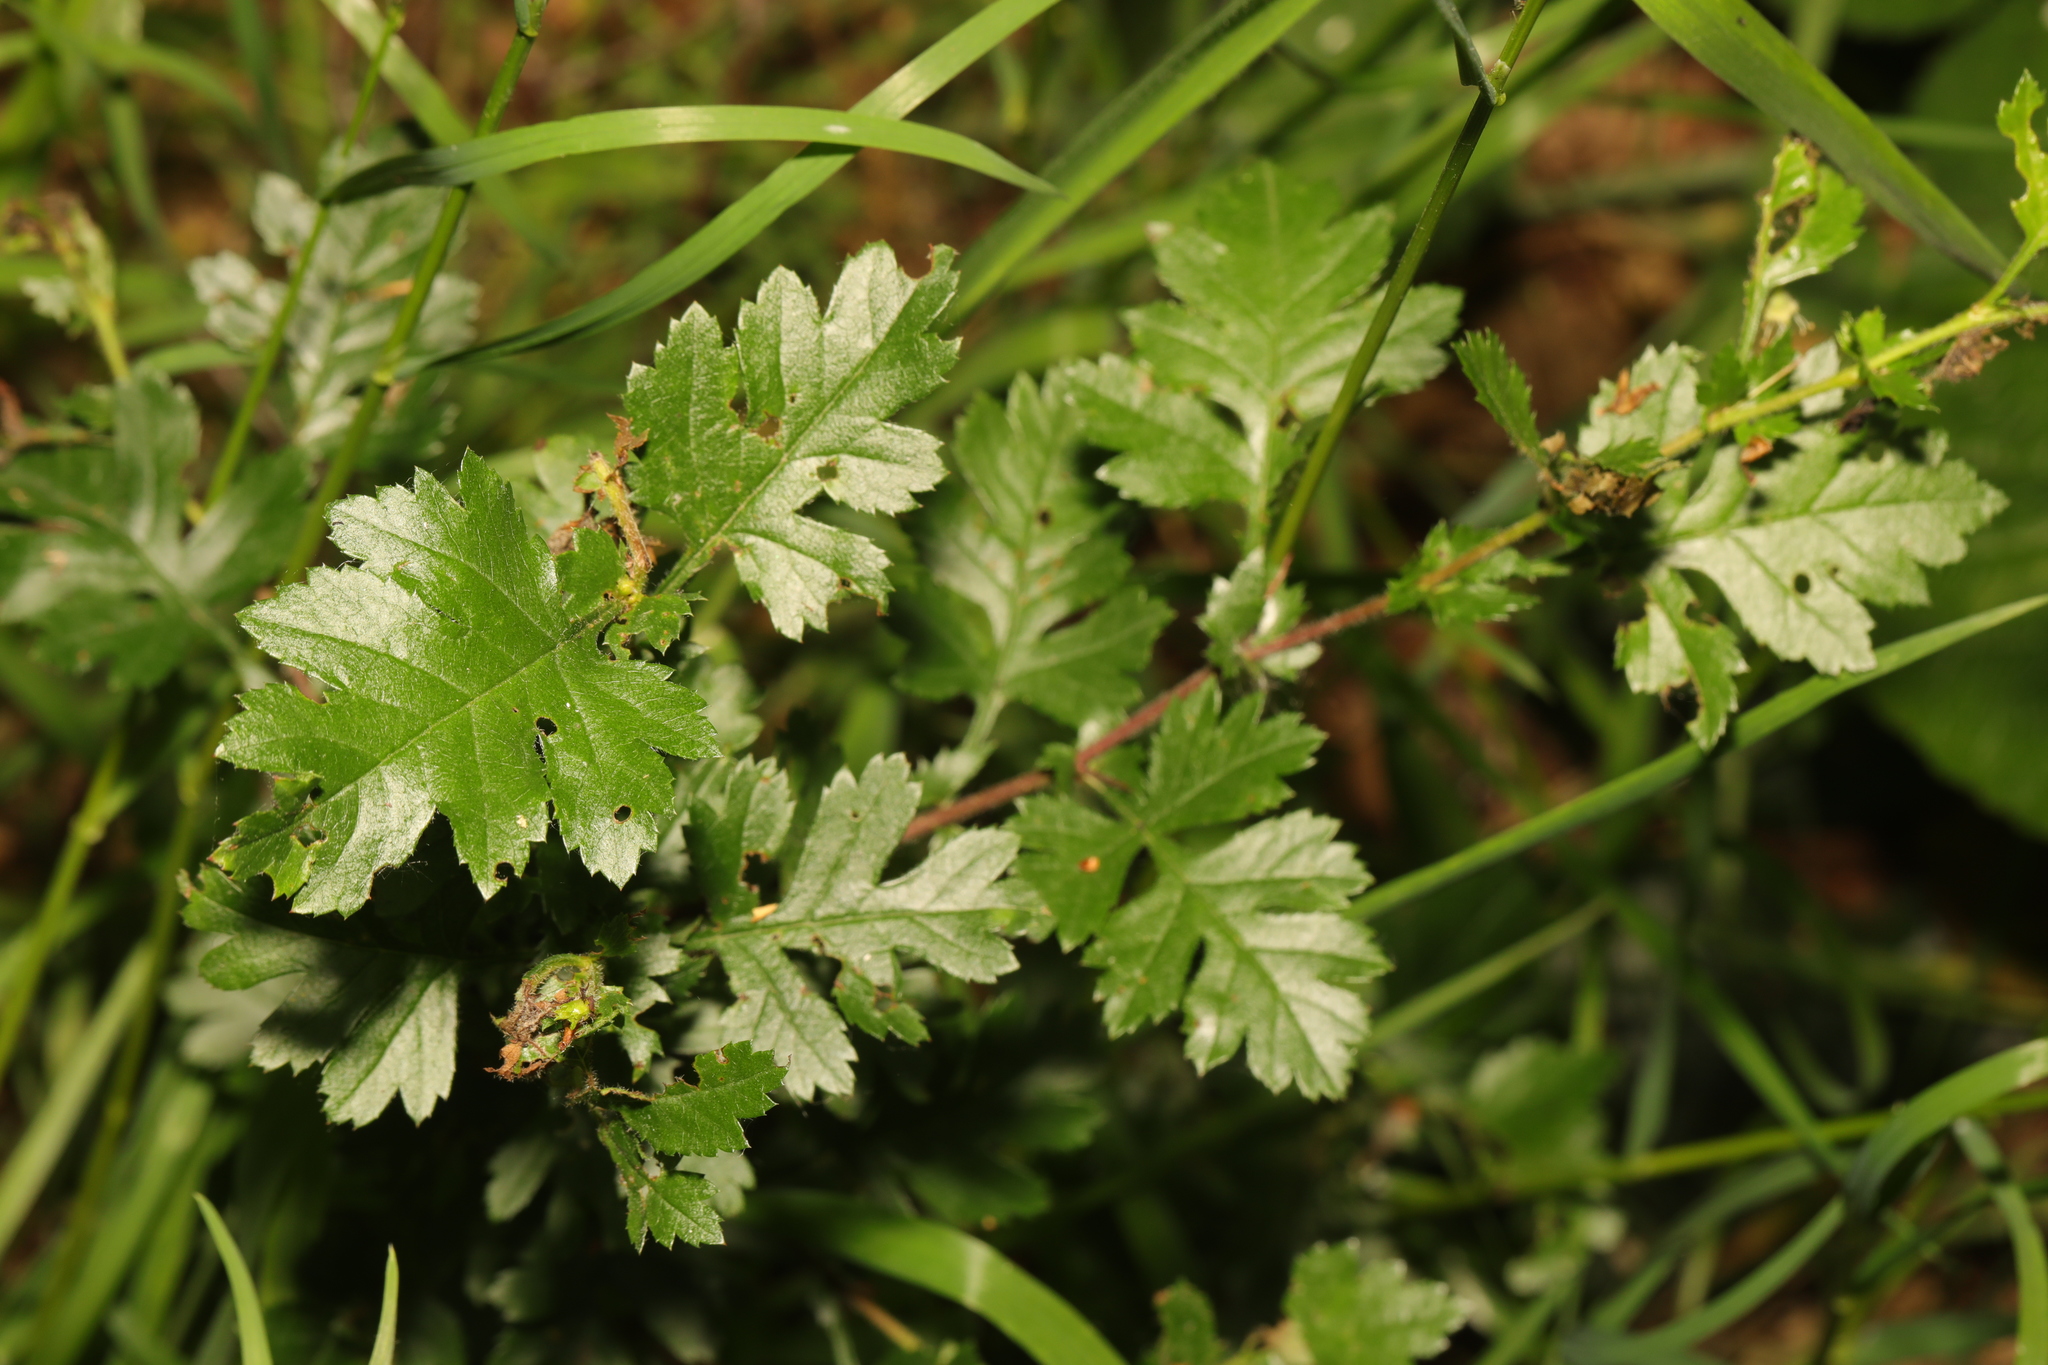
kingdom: Plantae
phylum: Tracheophyta
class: Magnoliopsida
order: Rosales
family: Rosaceae
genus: Crataegus
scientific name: Crataegus monogyna
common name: Hawthorn
